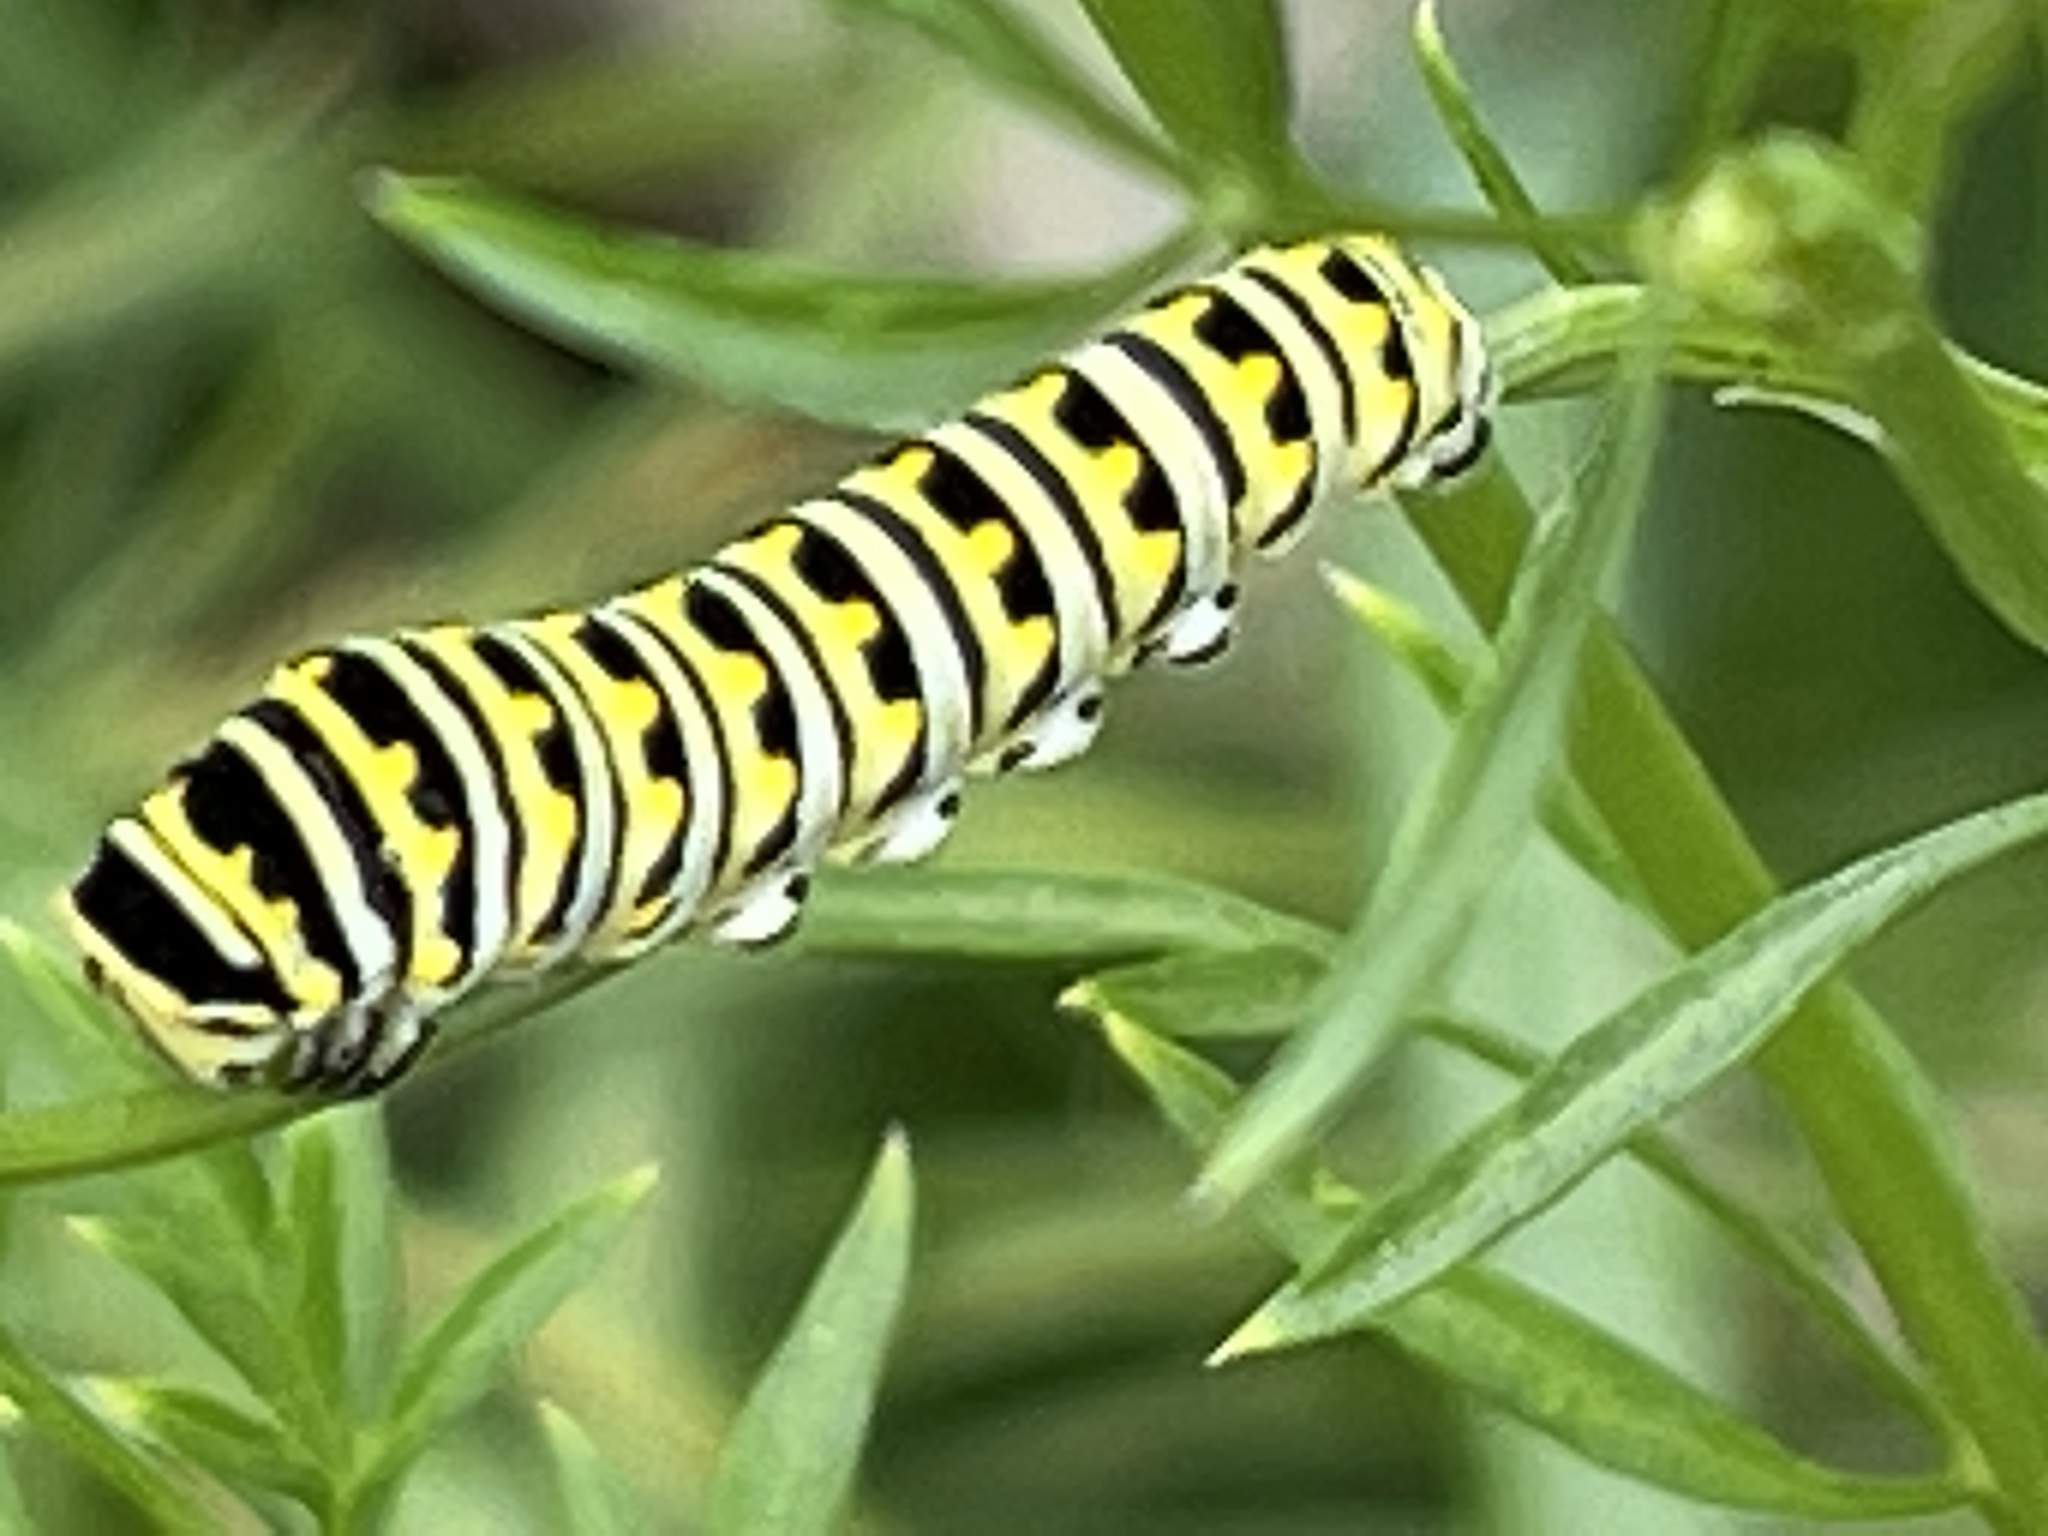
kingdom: Animalia
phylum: Arthropoda
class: Insecta
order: Lepidoptera
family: Papilionidae
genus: Papilio
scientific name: Papilio polyxenes
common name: Black swallowtail
